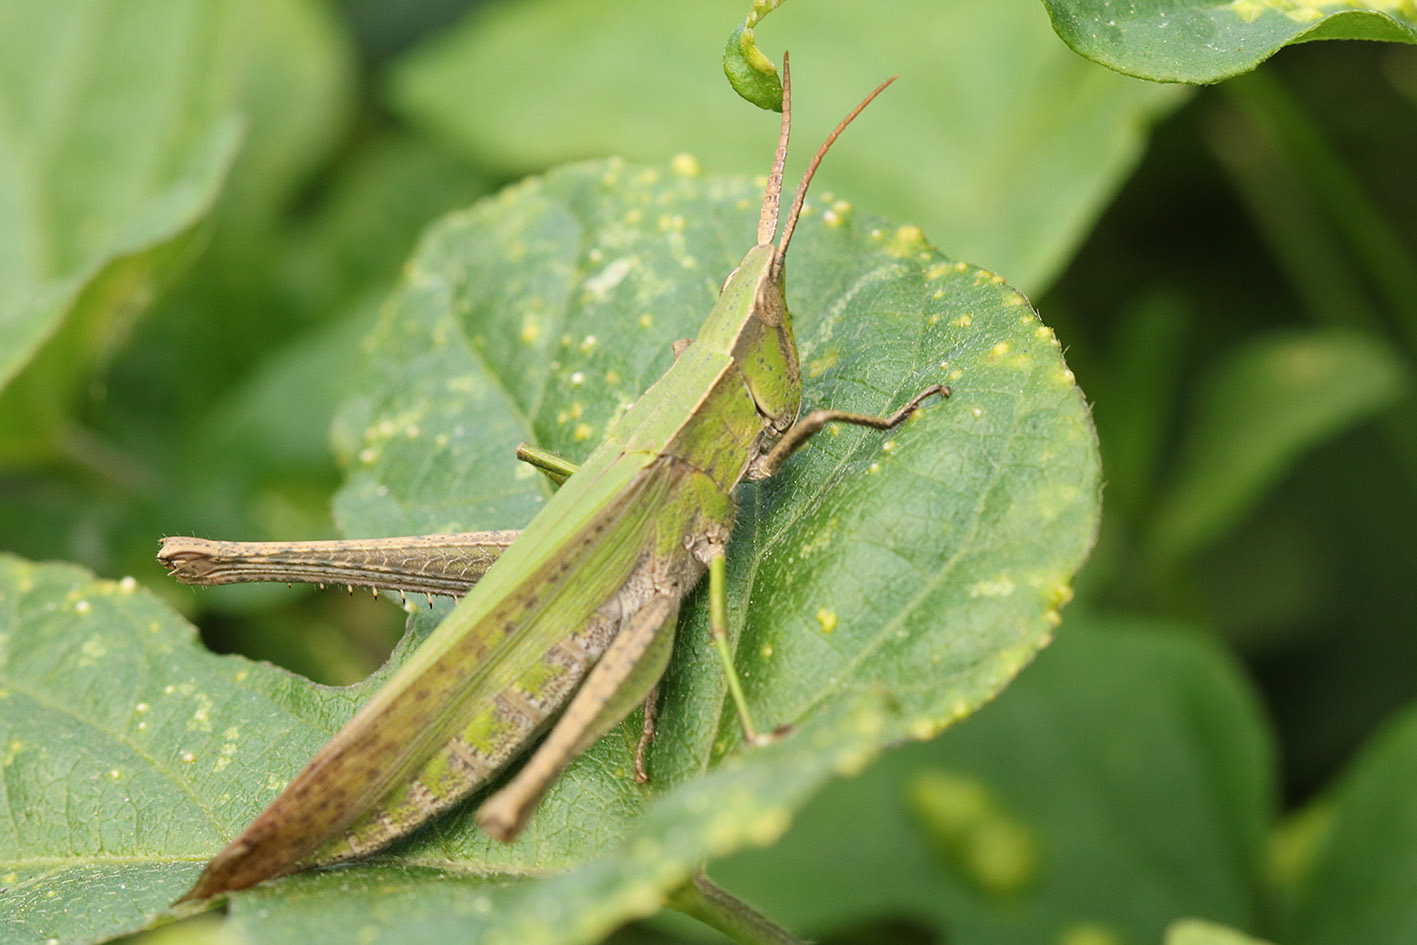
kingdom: Animalia
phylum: Arthropoda
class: Insecta
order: Orthoptera
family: Acrididae
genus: Metaleptea
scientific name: Metaleptea adspersa
